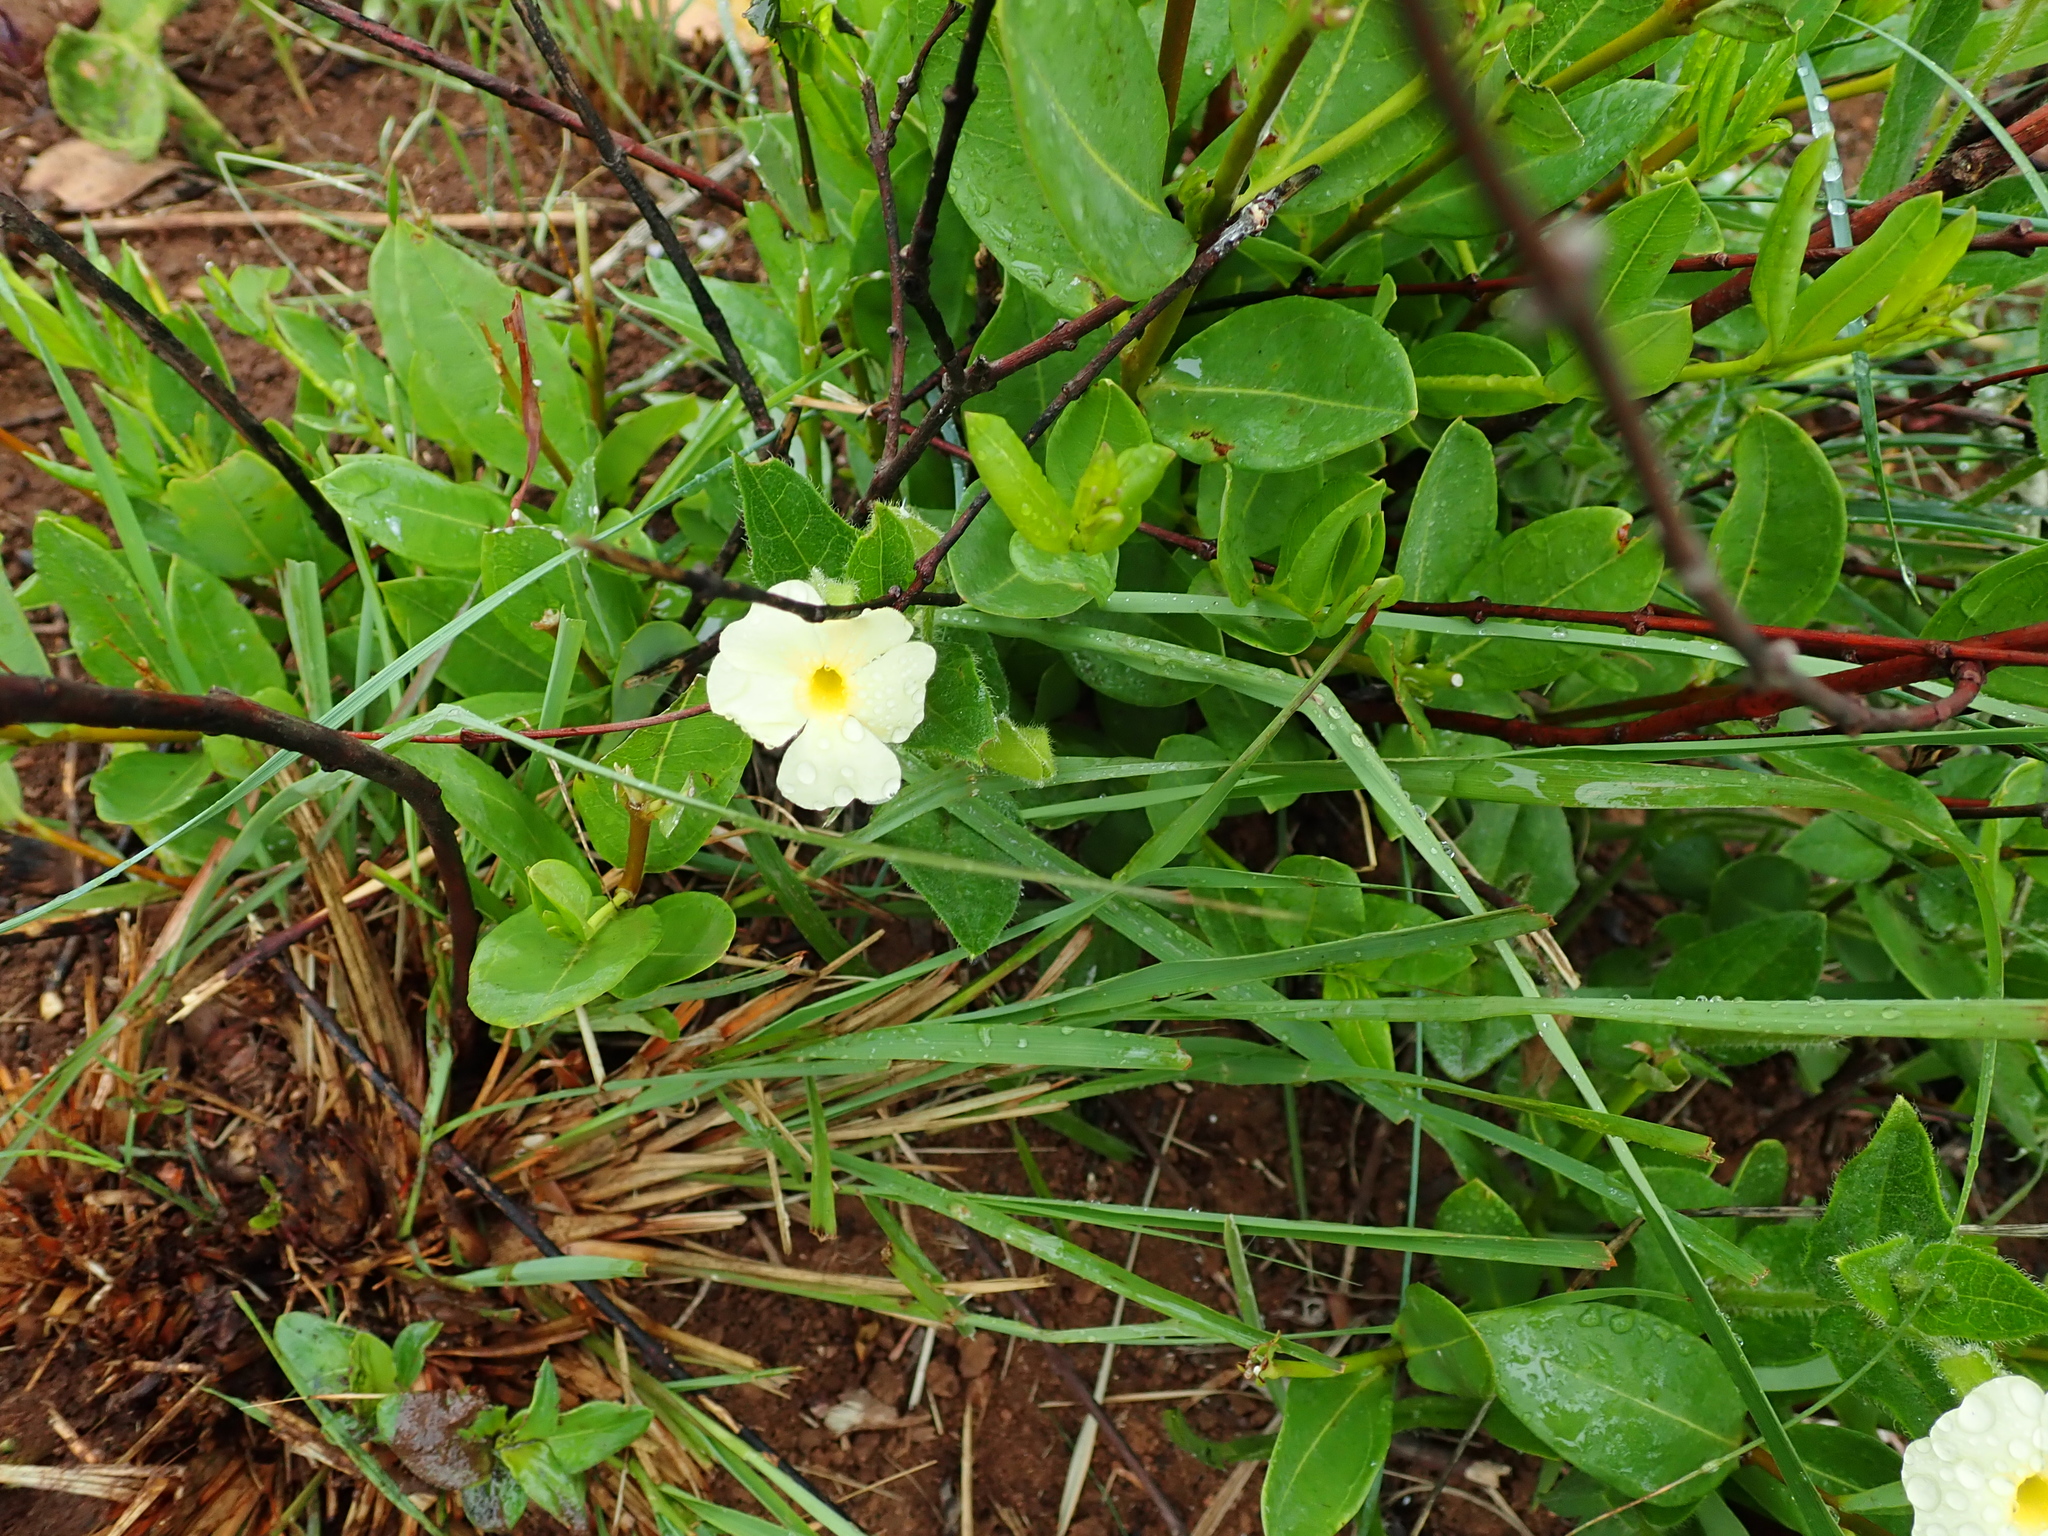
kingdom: Plantae
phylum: Tracheophyta
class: Magnoliopsida
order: Lamiales
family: Acanthaceae
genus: Thunbergia
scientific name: Thunbergia atriplicifolia
